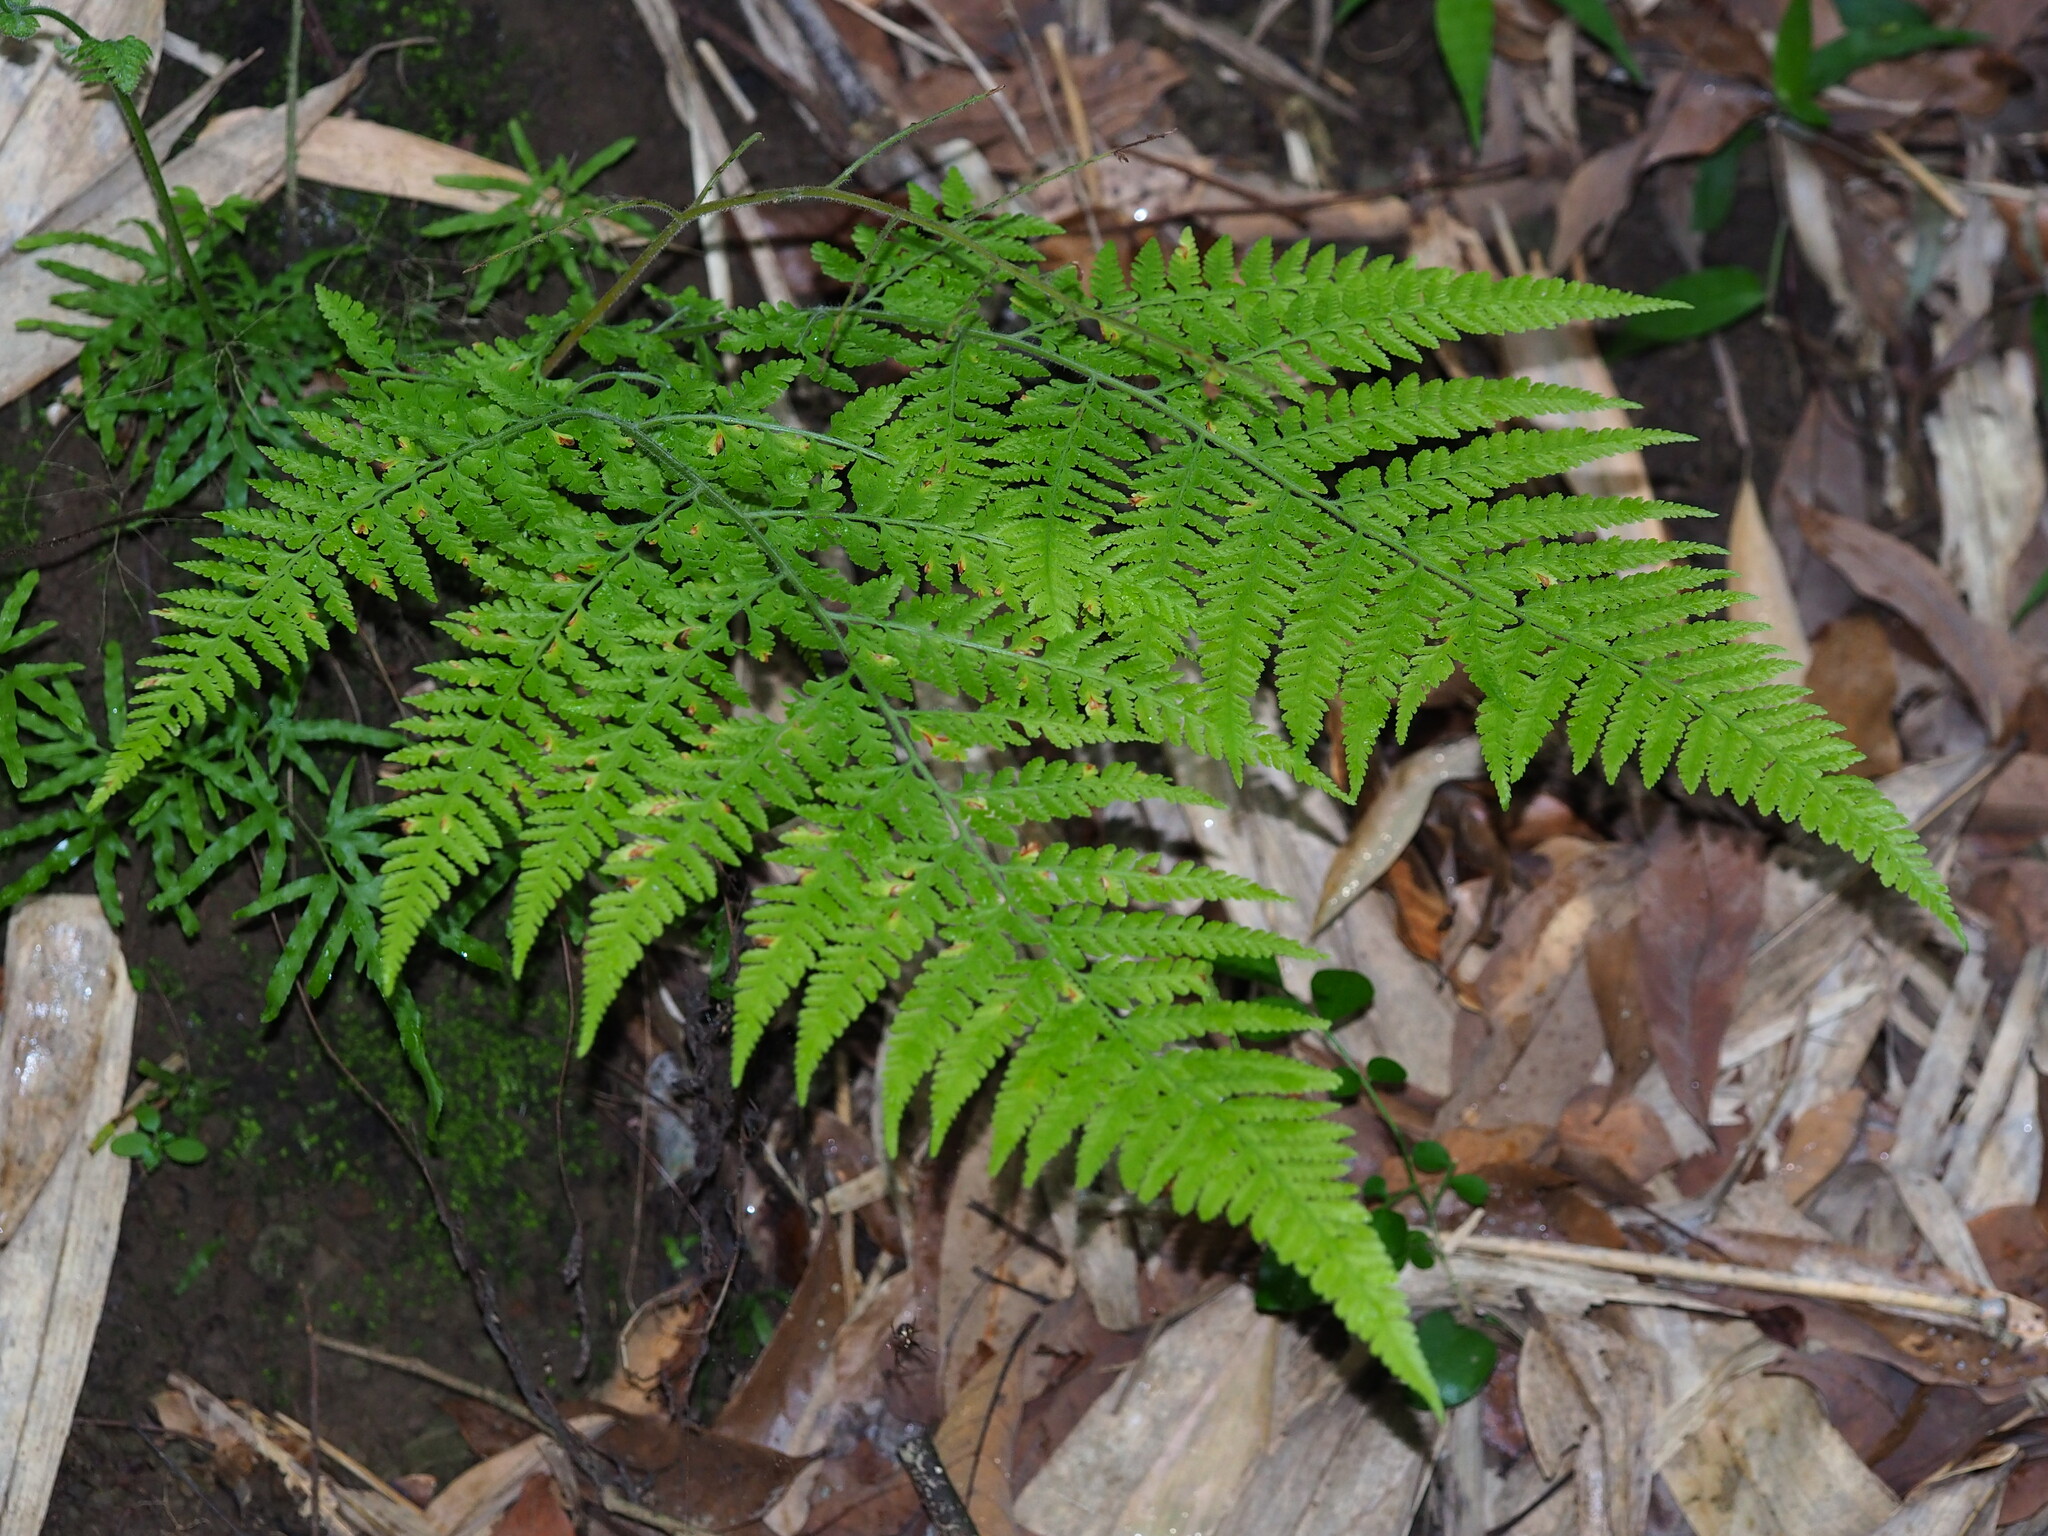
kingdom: Plantae
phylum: Tracheophyta
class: Polypodiopsida
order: Polypodiales
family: Dennstaedtiaceae
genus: Microlepia
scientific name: Microlepia speluncae
